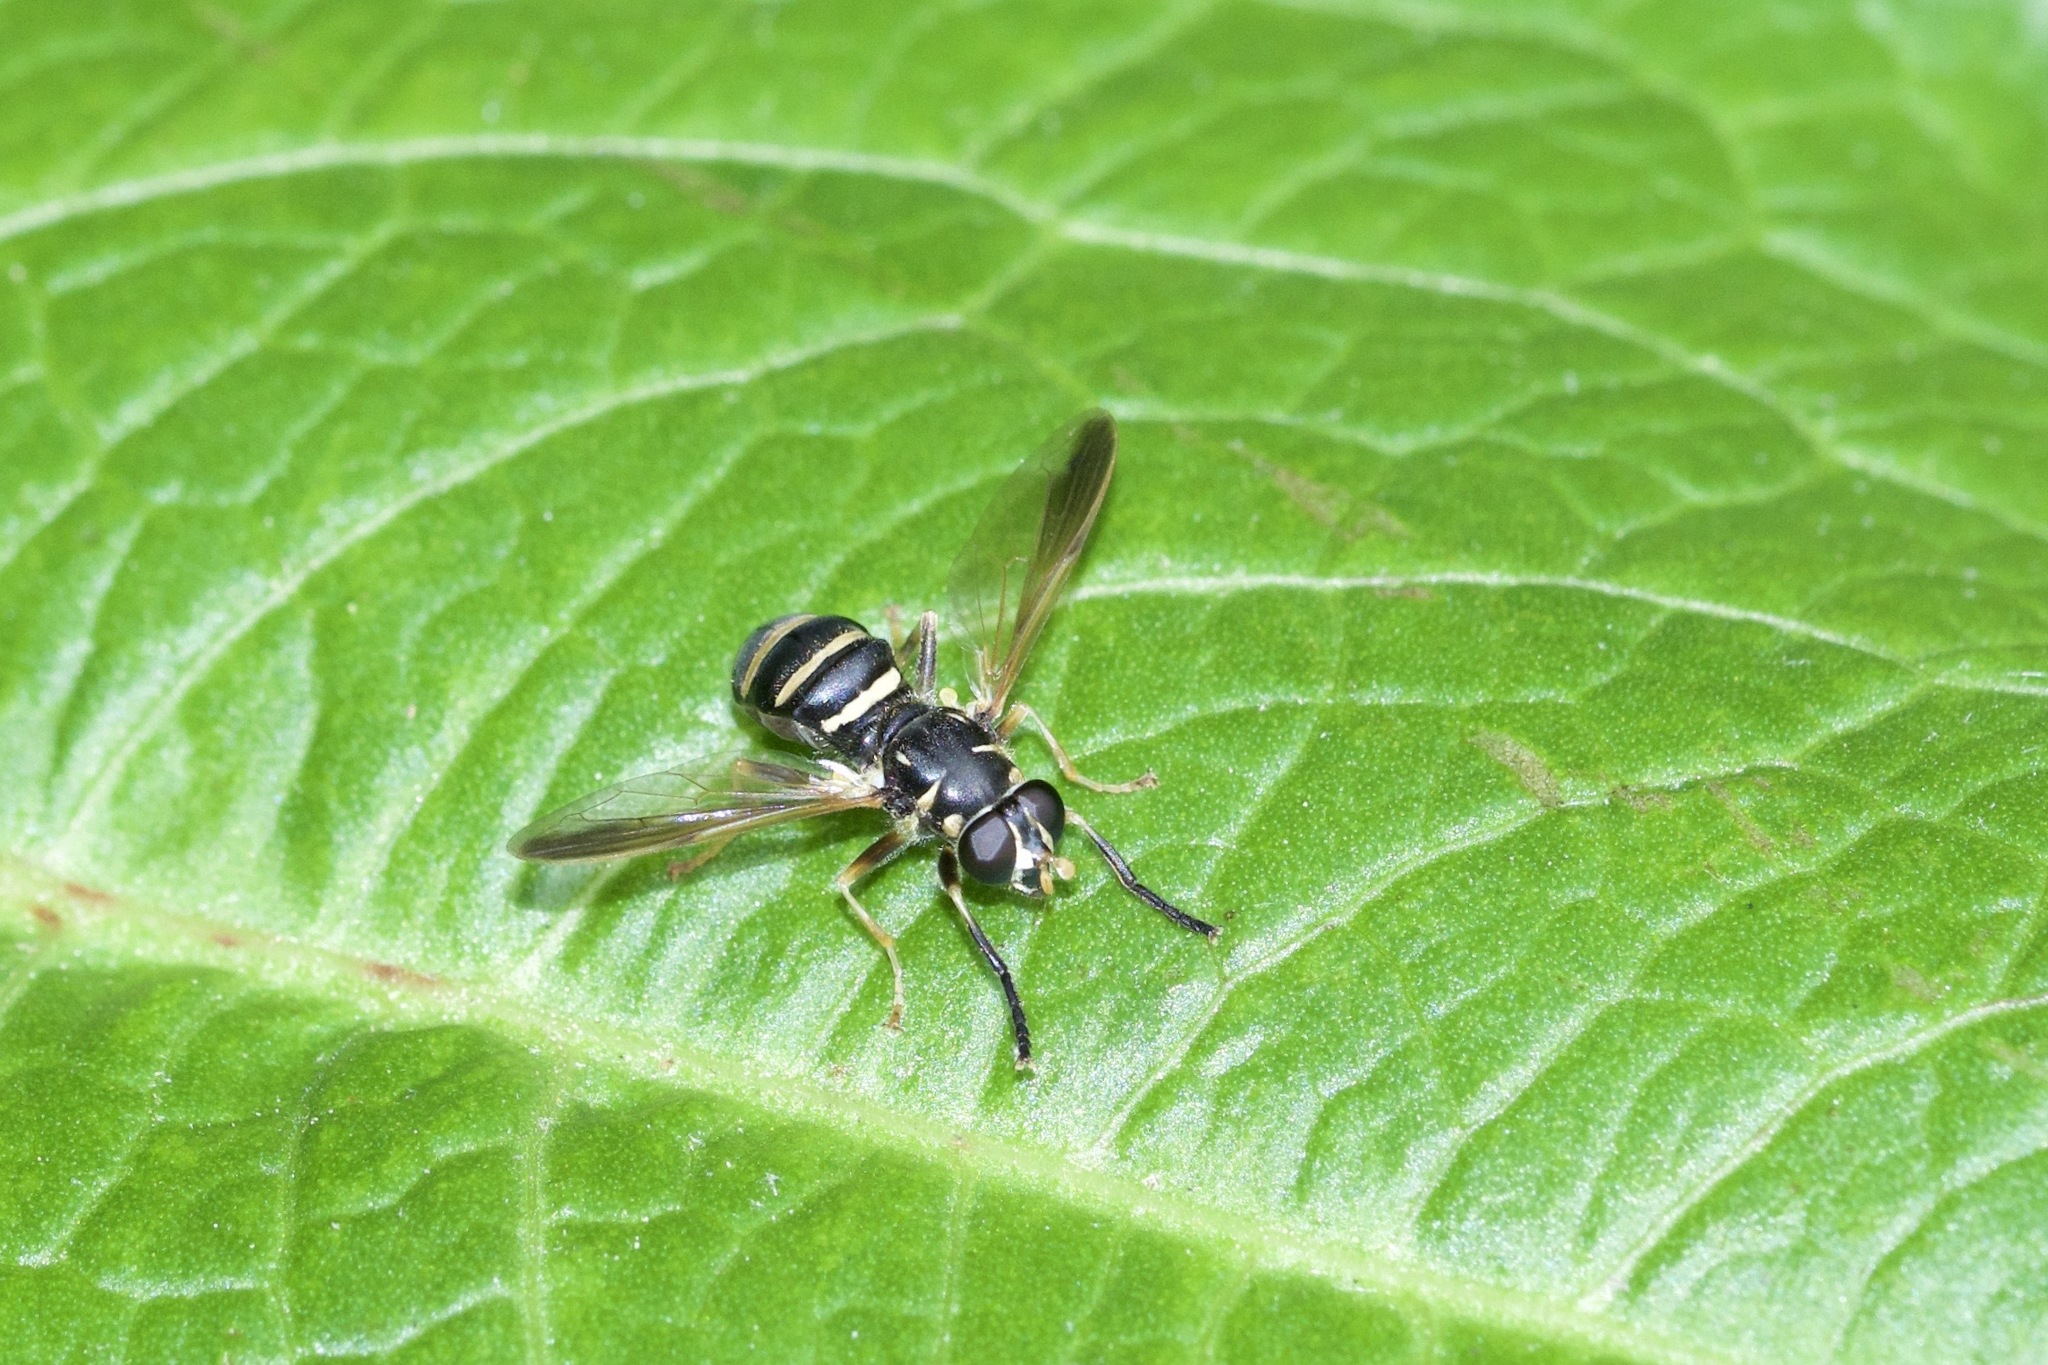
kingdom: Animalia
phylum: Arthropoda
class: Insecta
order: Diptera
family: Syrphidae
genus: Temnostoma
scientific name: Temnostoma barberi
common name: Bare-bellied falsehorn
